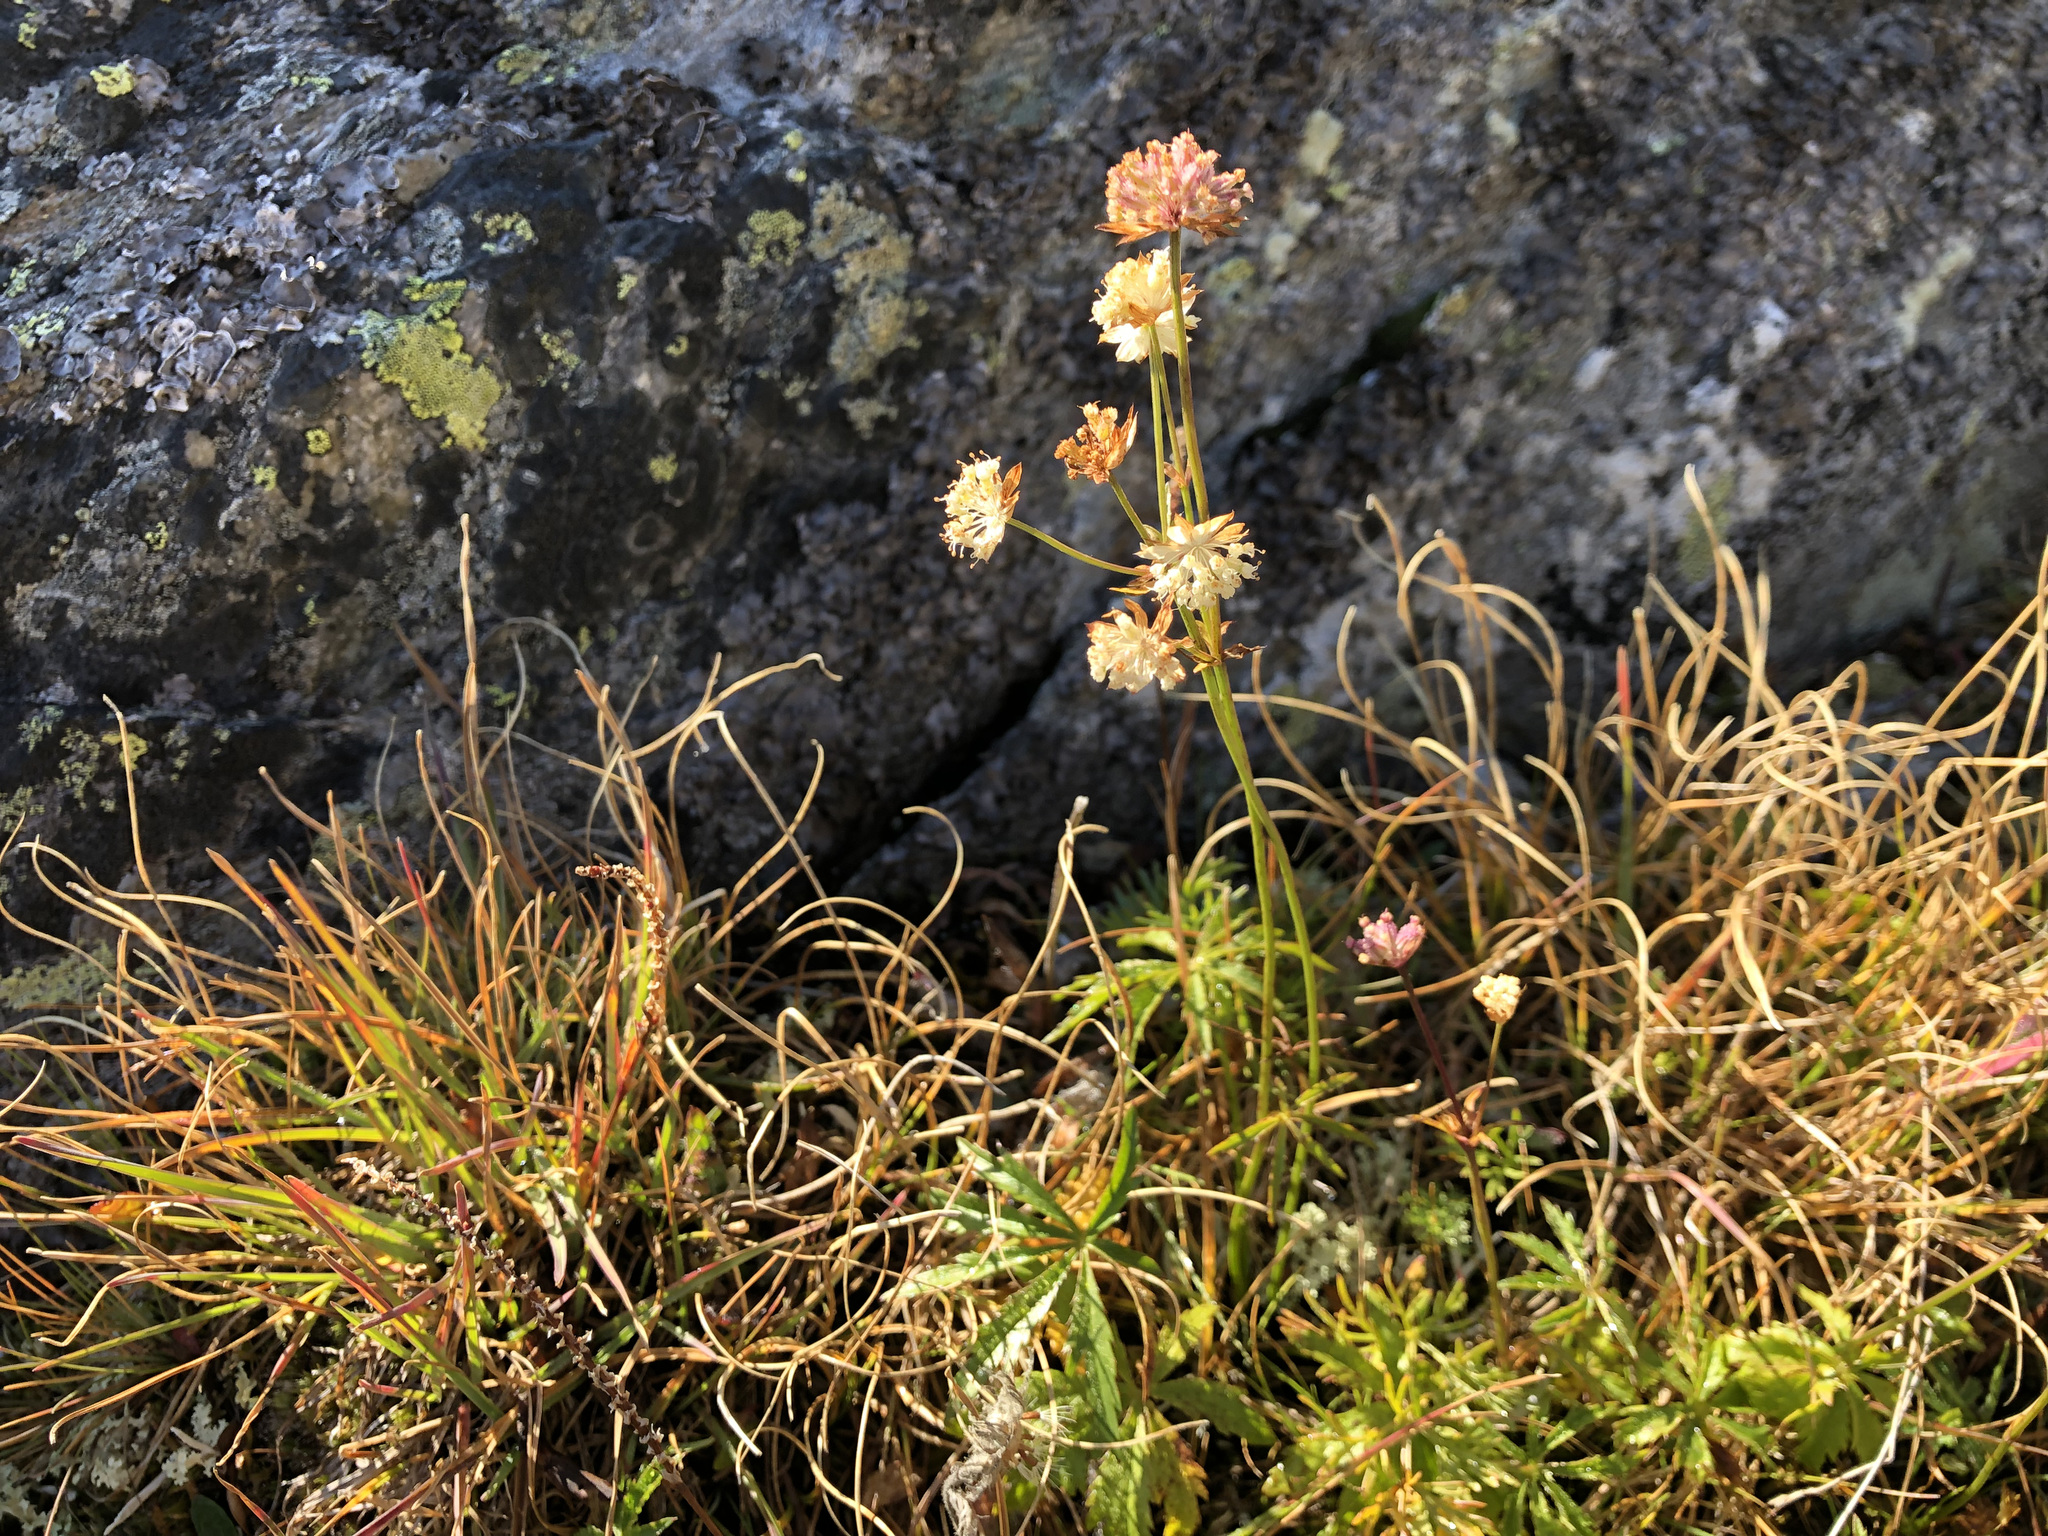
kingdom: Plantae
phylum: Tracheophyta
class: Magnoliopsida
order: Apiales
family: Apiaceae
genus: Astrantia
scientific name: Astrantia minor
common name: Lesser masterwort
